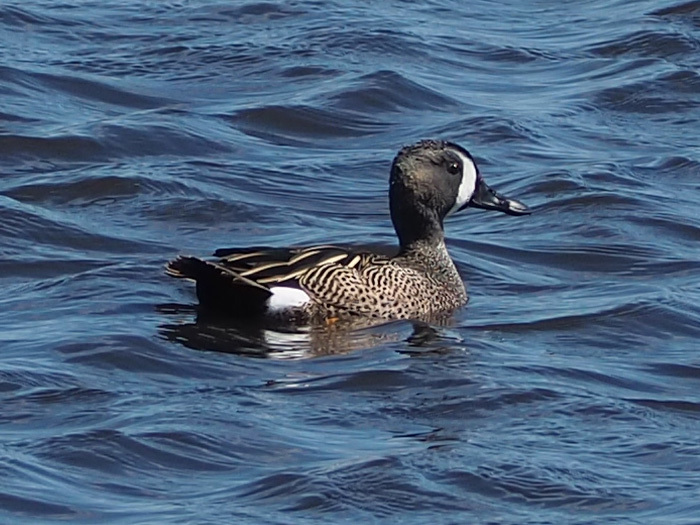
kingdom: Animalia
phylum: Chordata
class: Aves
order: Anseriformes
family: Anatidae
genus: Spatula
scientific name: Spatula discors
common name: Blue-winged teal
